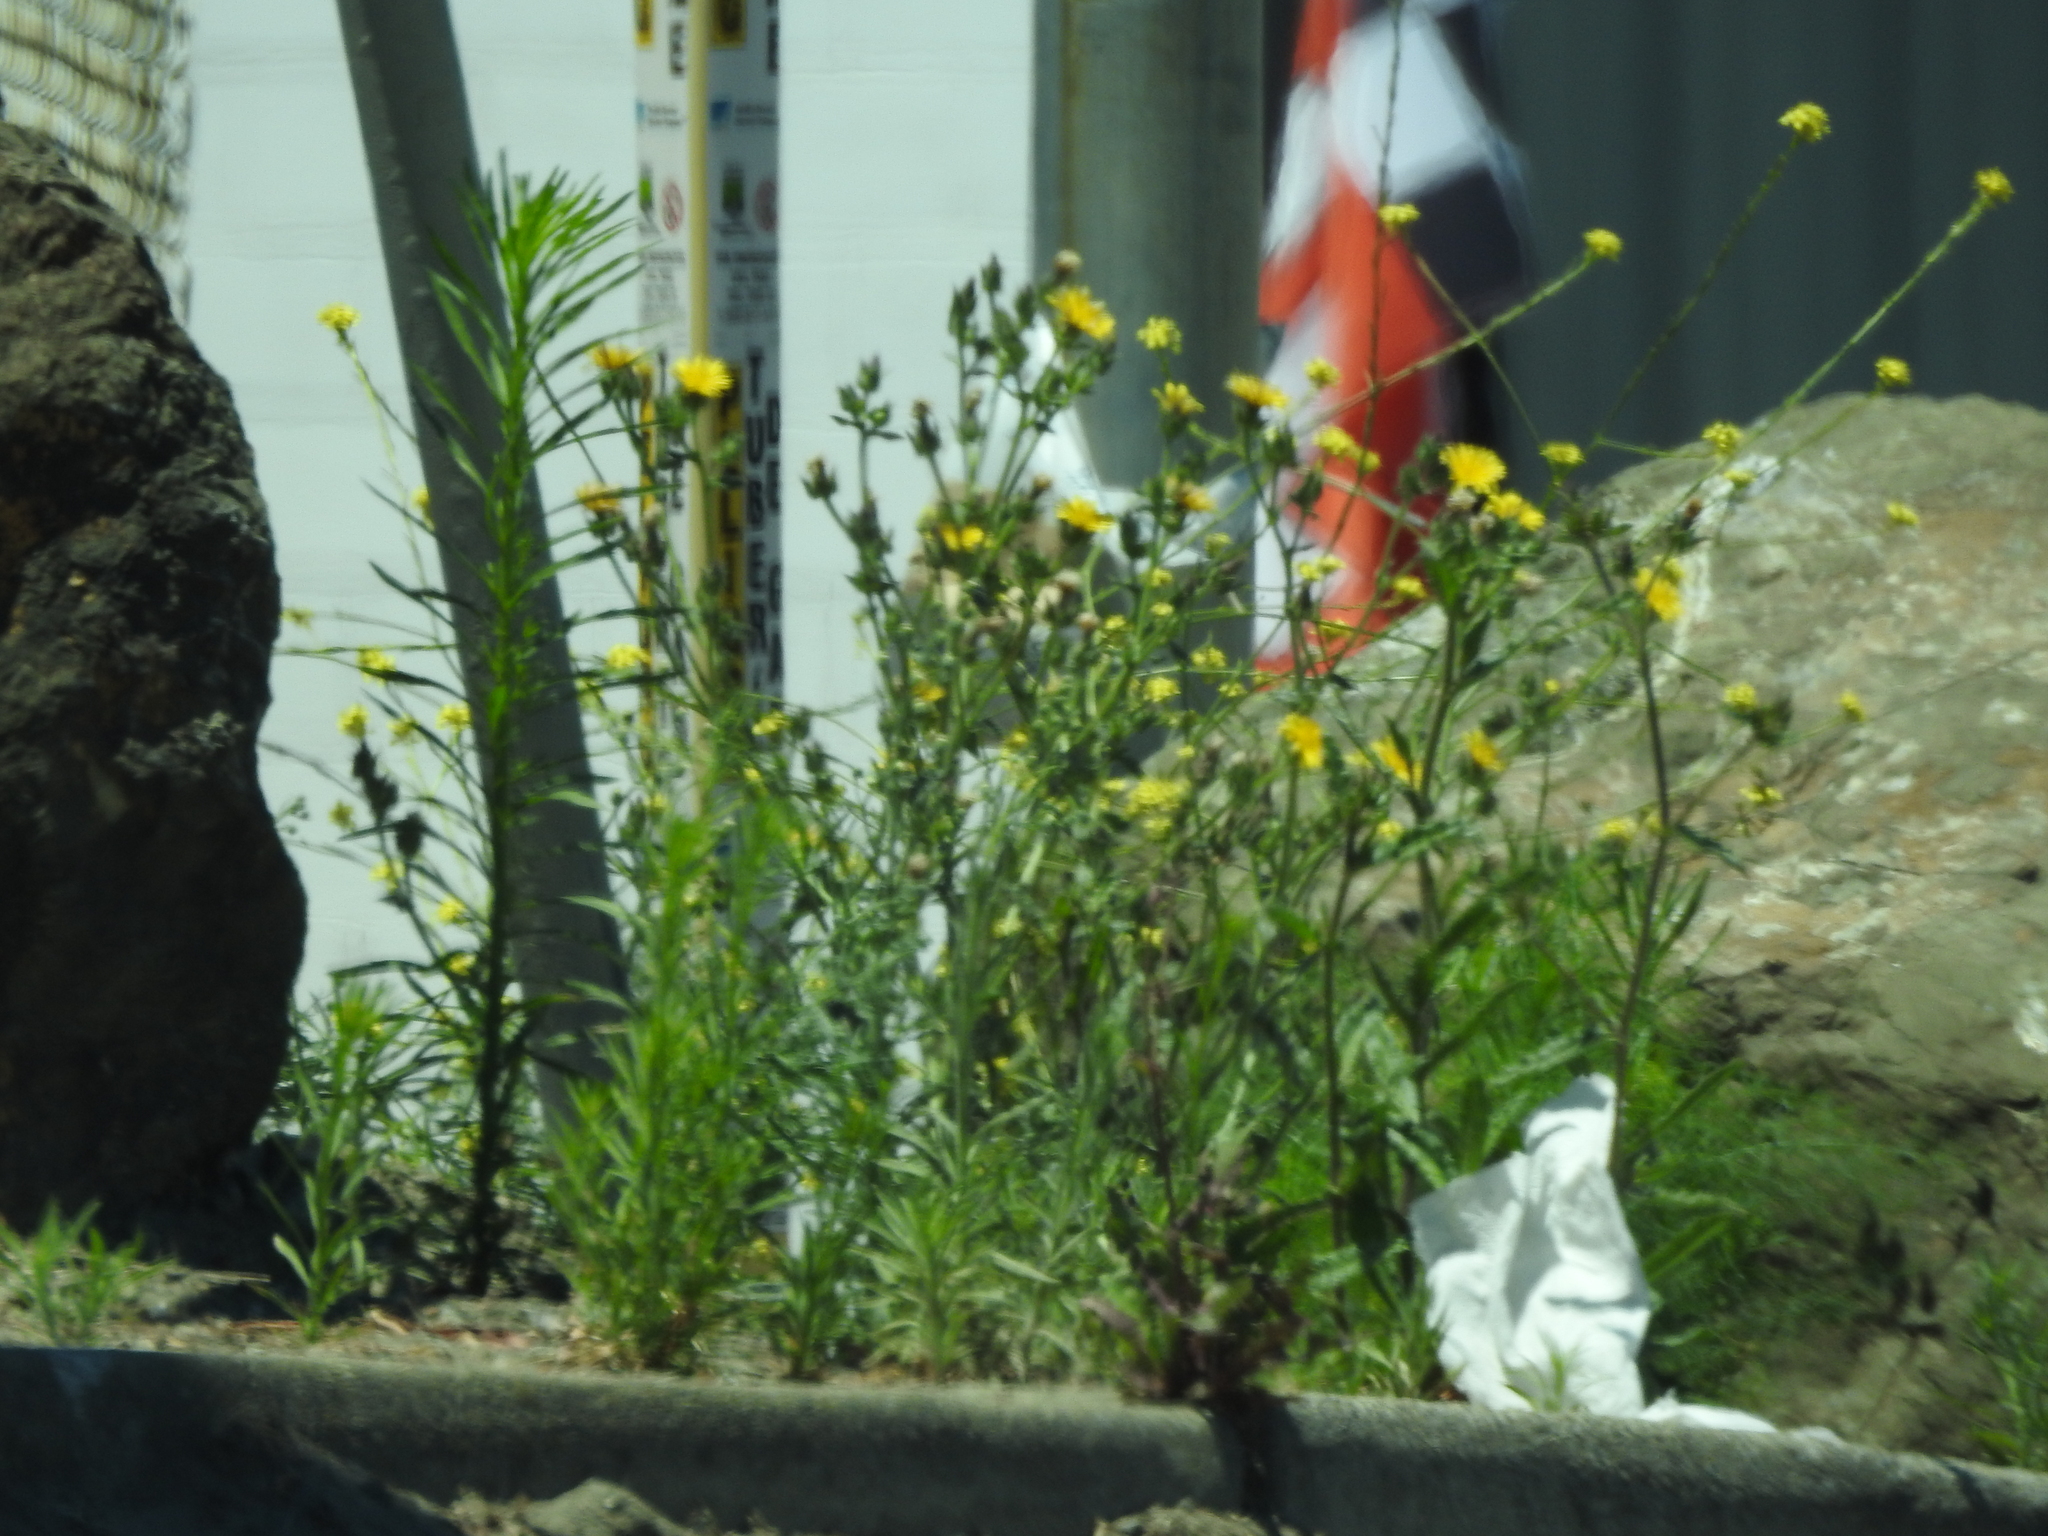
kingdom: Plantae
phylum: Tracheophyta
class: Magnoliopsida
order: Asterales
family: Asteraceae
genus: Helminthotheca
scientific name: Helminthotheca echioides
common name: Ox-tongue
